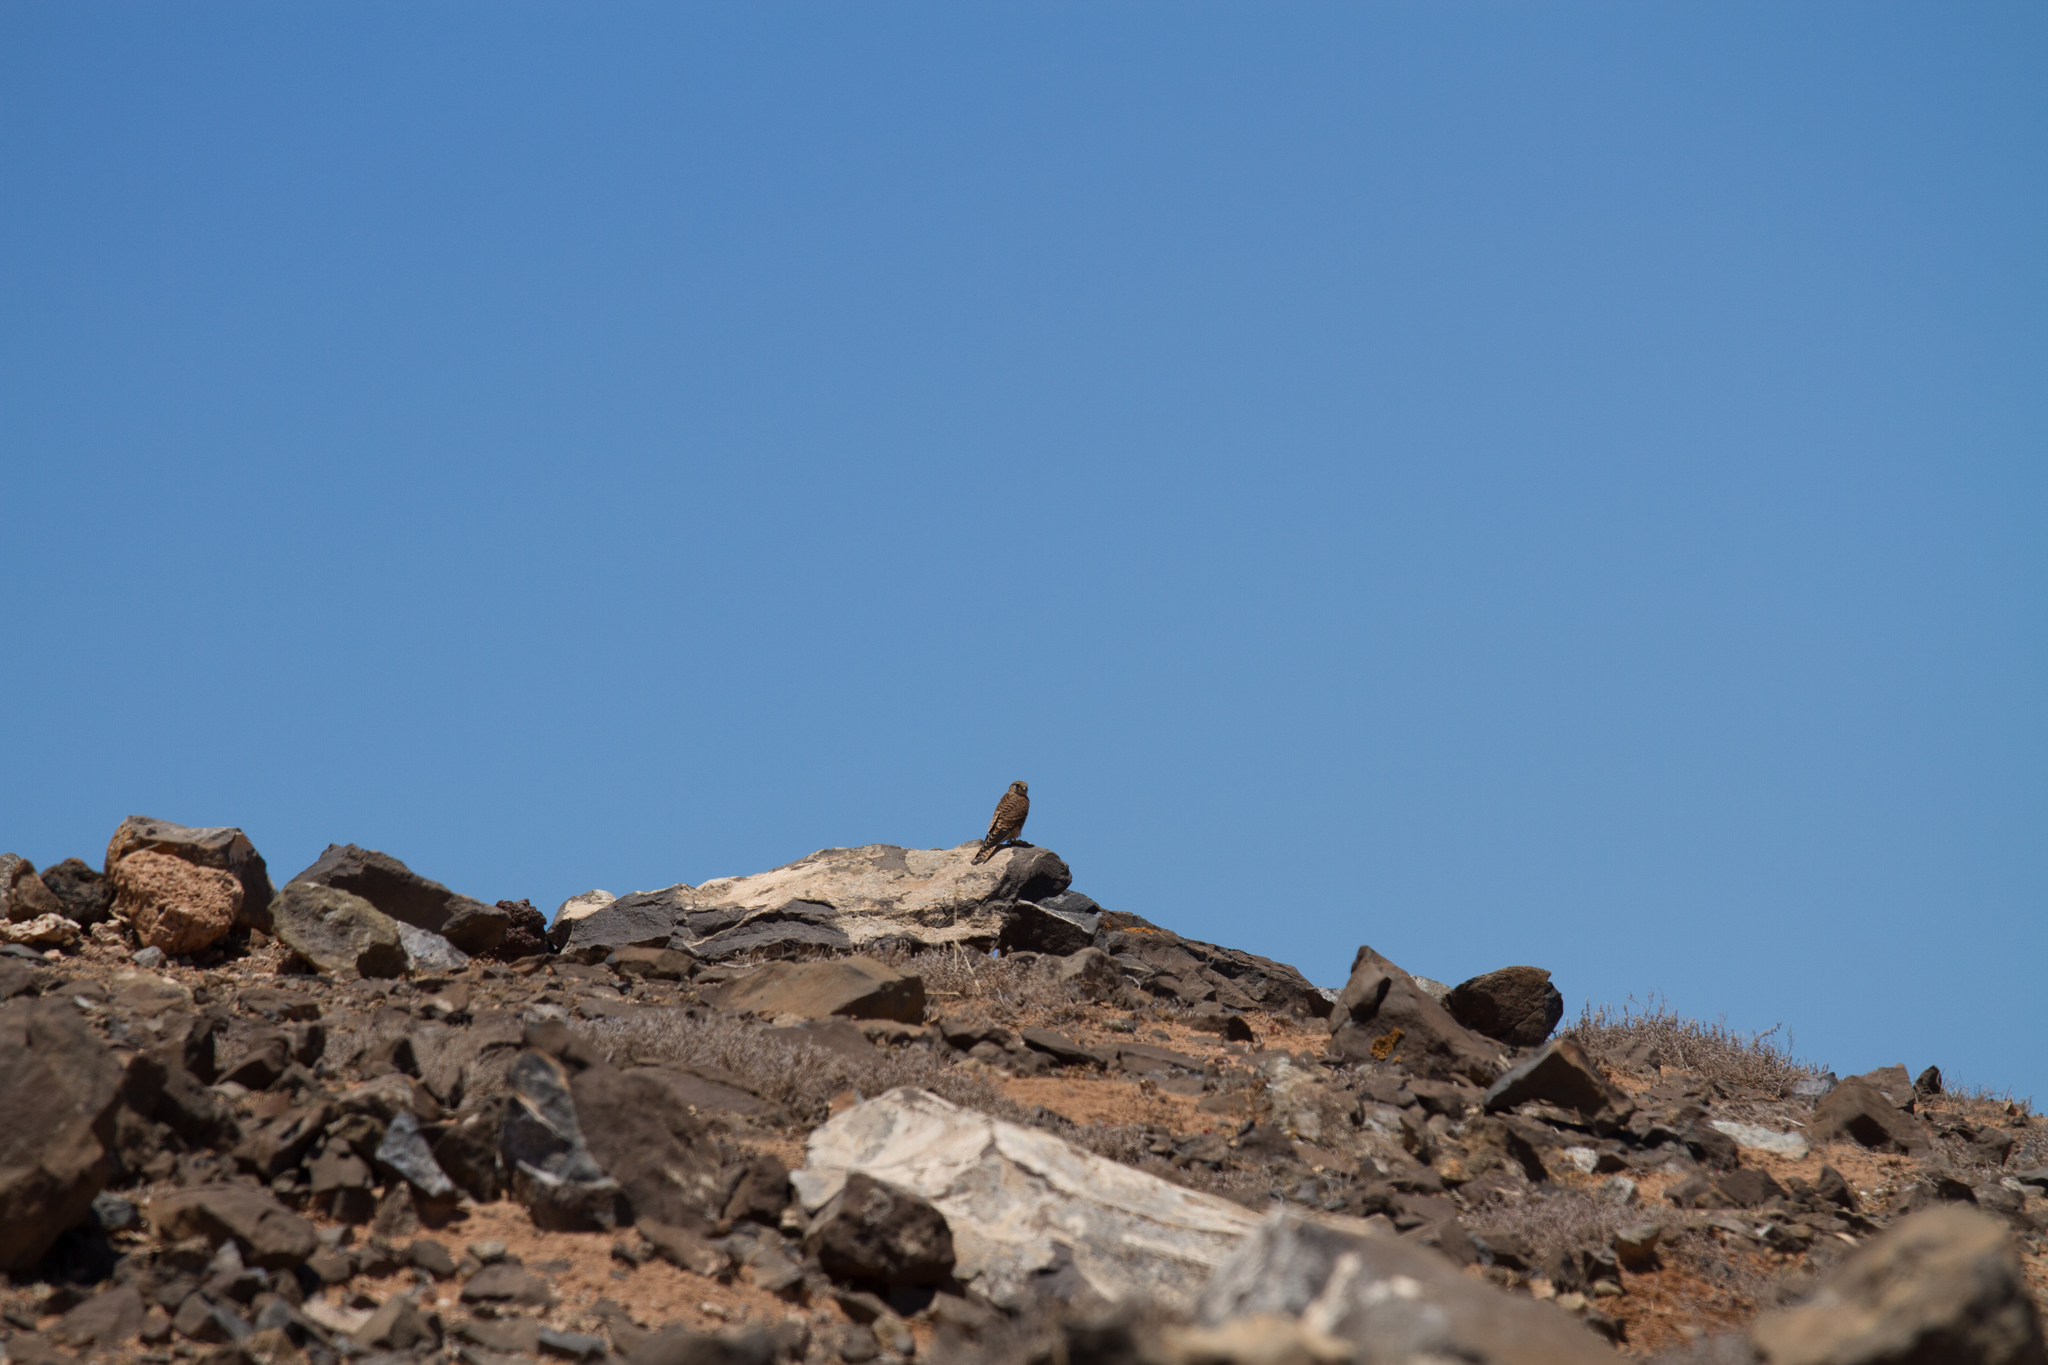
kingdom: Animalia
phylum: Chordata
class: Aves
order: Falconiformes
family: Falconidae
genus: Falco
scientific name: Falco tinnunculus
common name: Common kestrel
